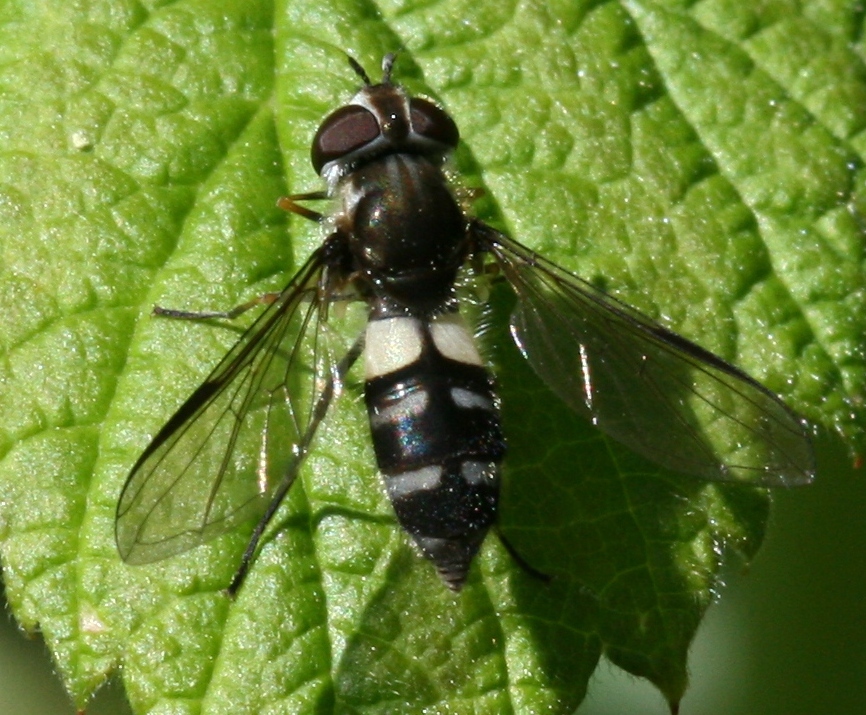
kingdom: Animalia
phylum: Arthropoda
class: Insecta
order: Diptera
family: Syrphidae
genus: Leucozona
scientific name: Leucozona laternaria
